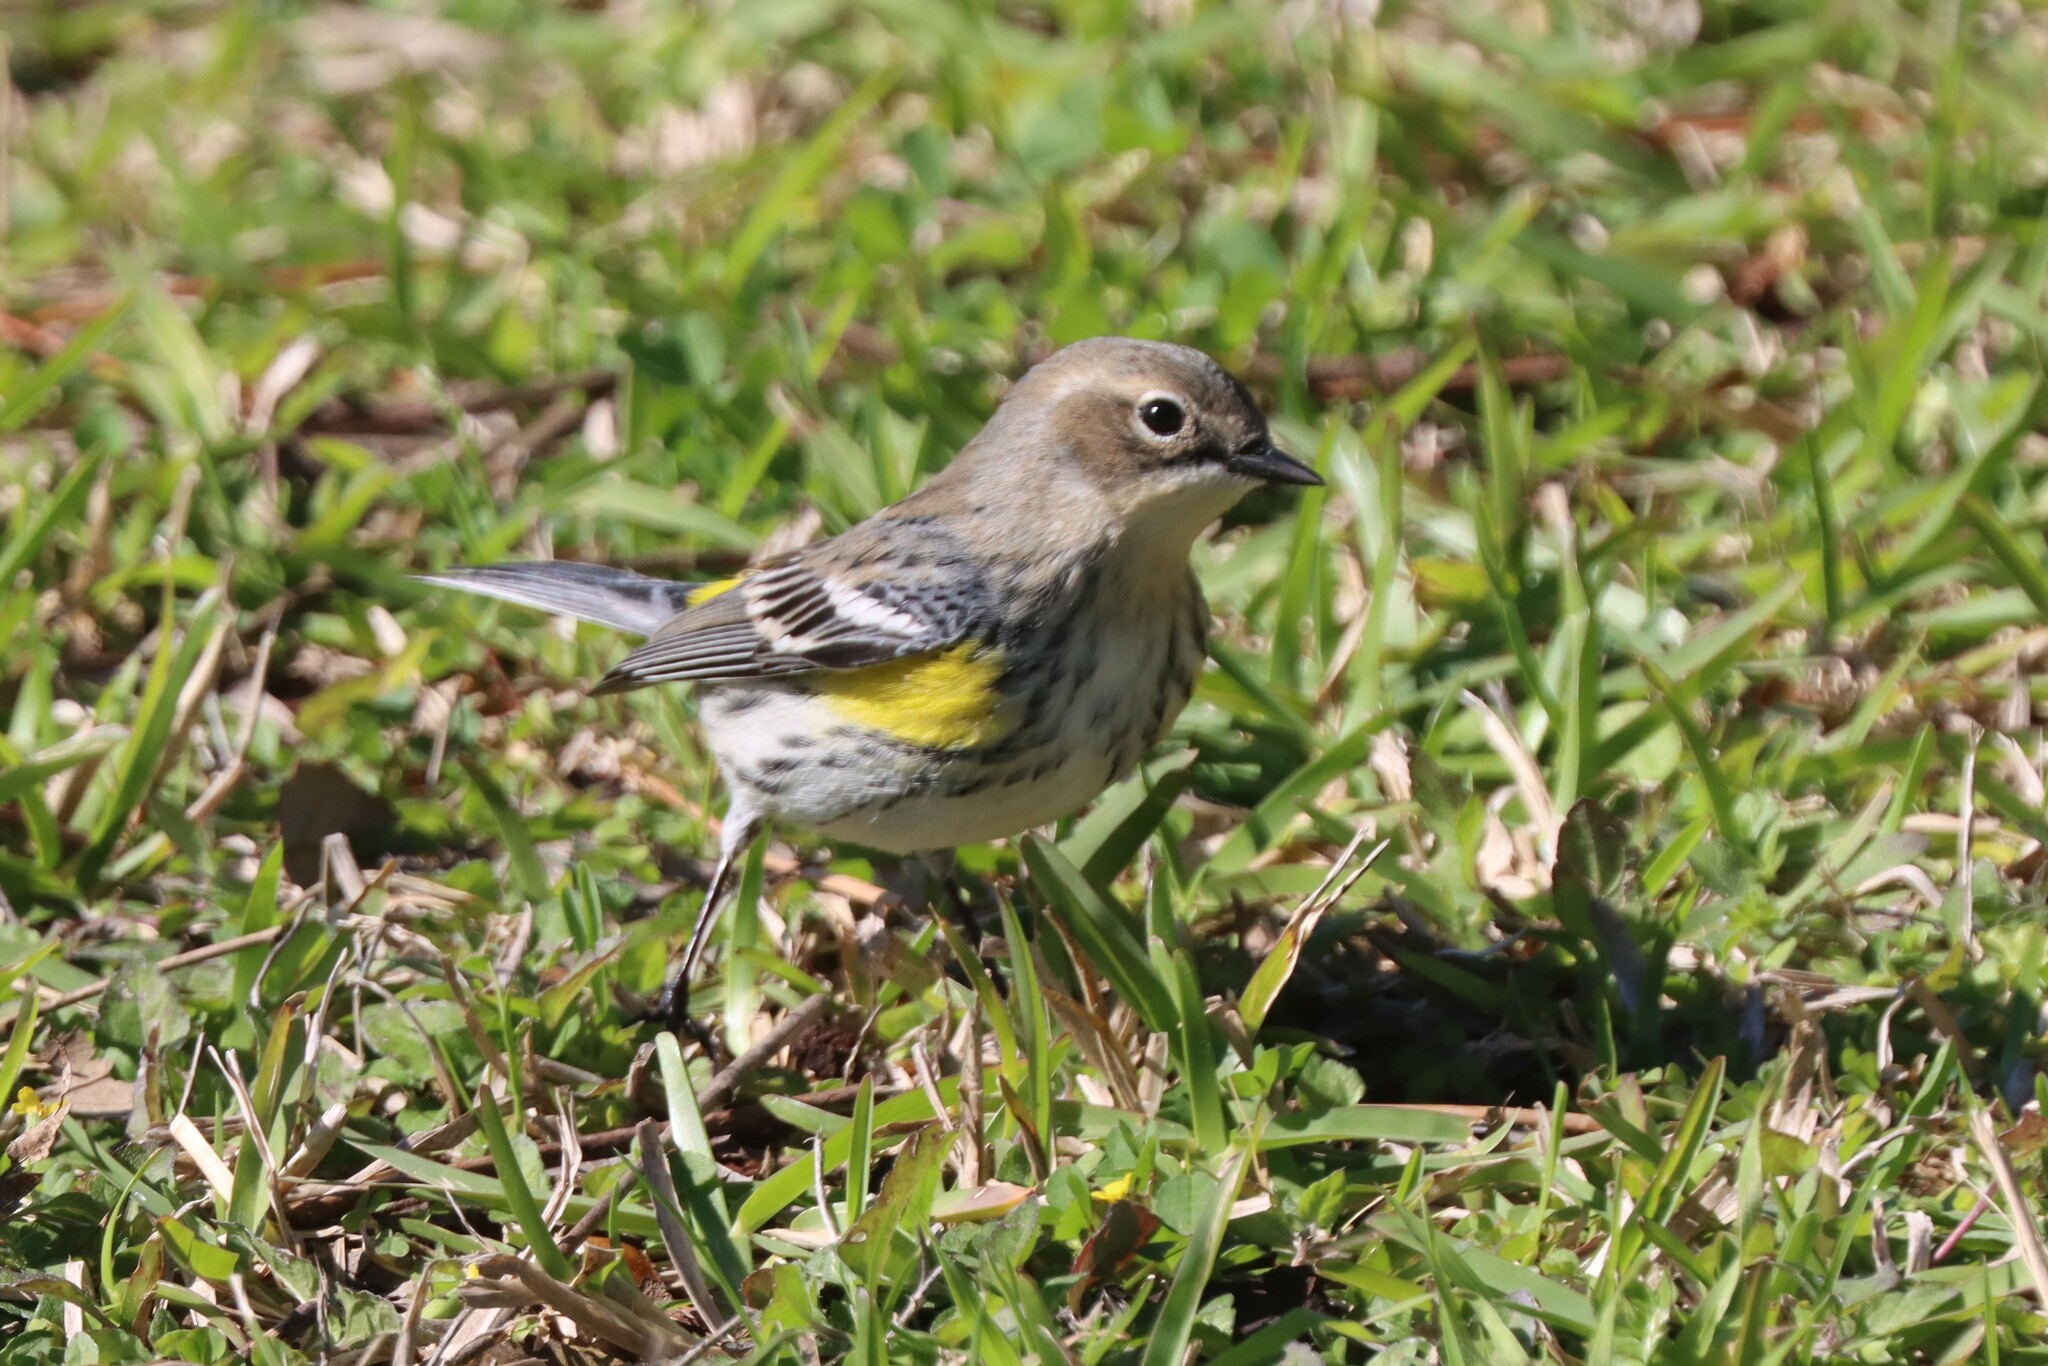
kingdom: Animalia
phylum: Chordata
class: Aves
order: Passeriformes
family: Parulidae
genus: Setophaga
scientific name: Setophaga coronata
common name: Myrtle warbler
